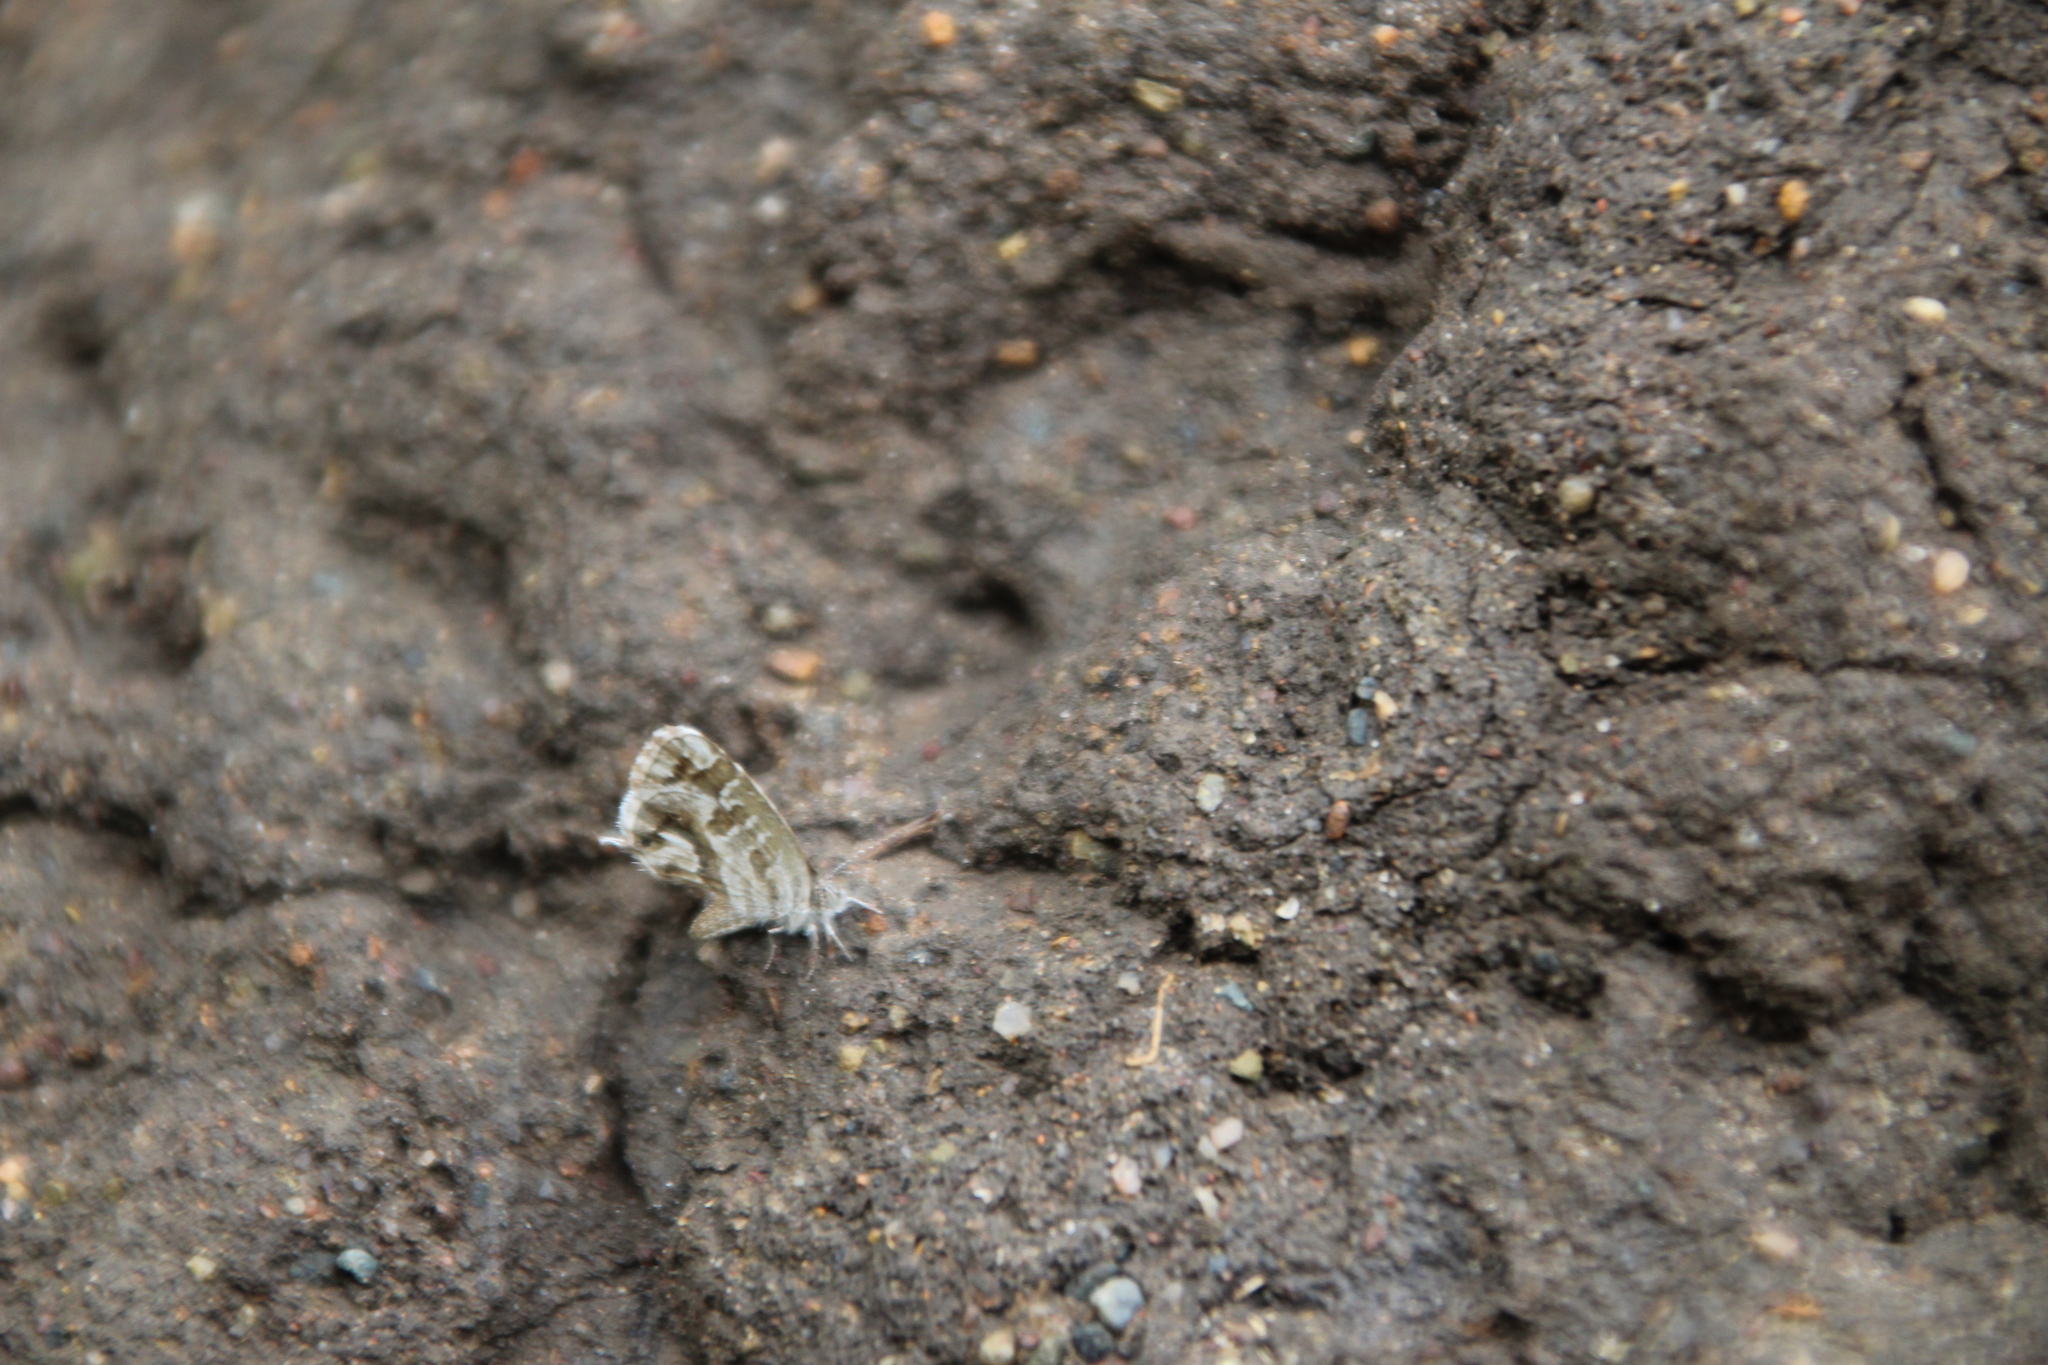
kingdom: Animalia
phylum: Arthropoda
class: Insecta
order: Lepidoptera
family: Lycaenidae
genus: Cacyreus
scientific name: Cacyreus marshalli
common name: Geranium bronze
